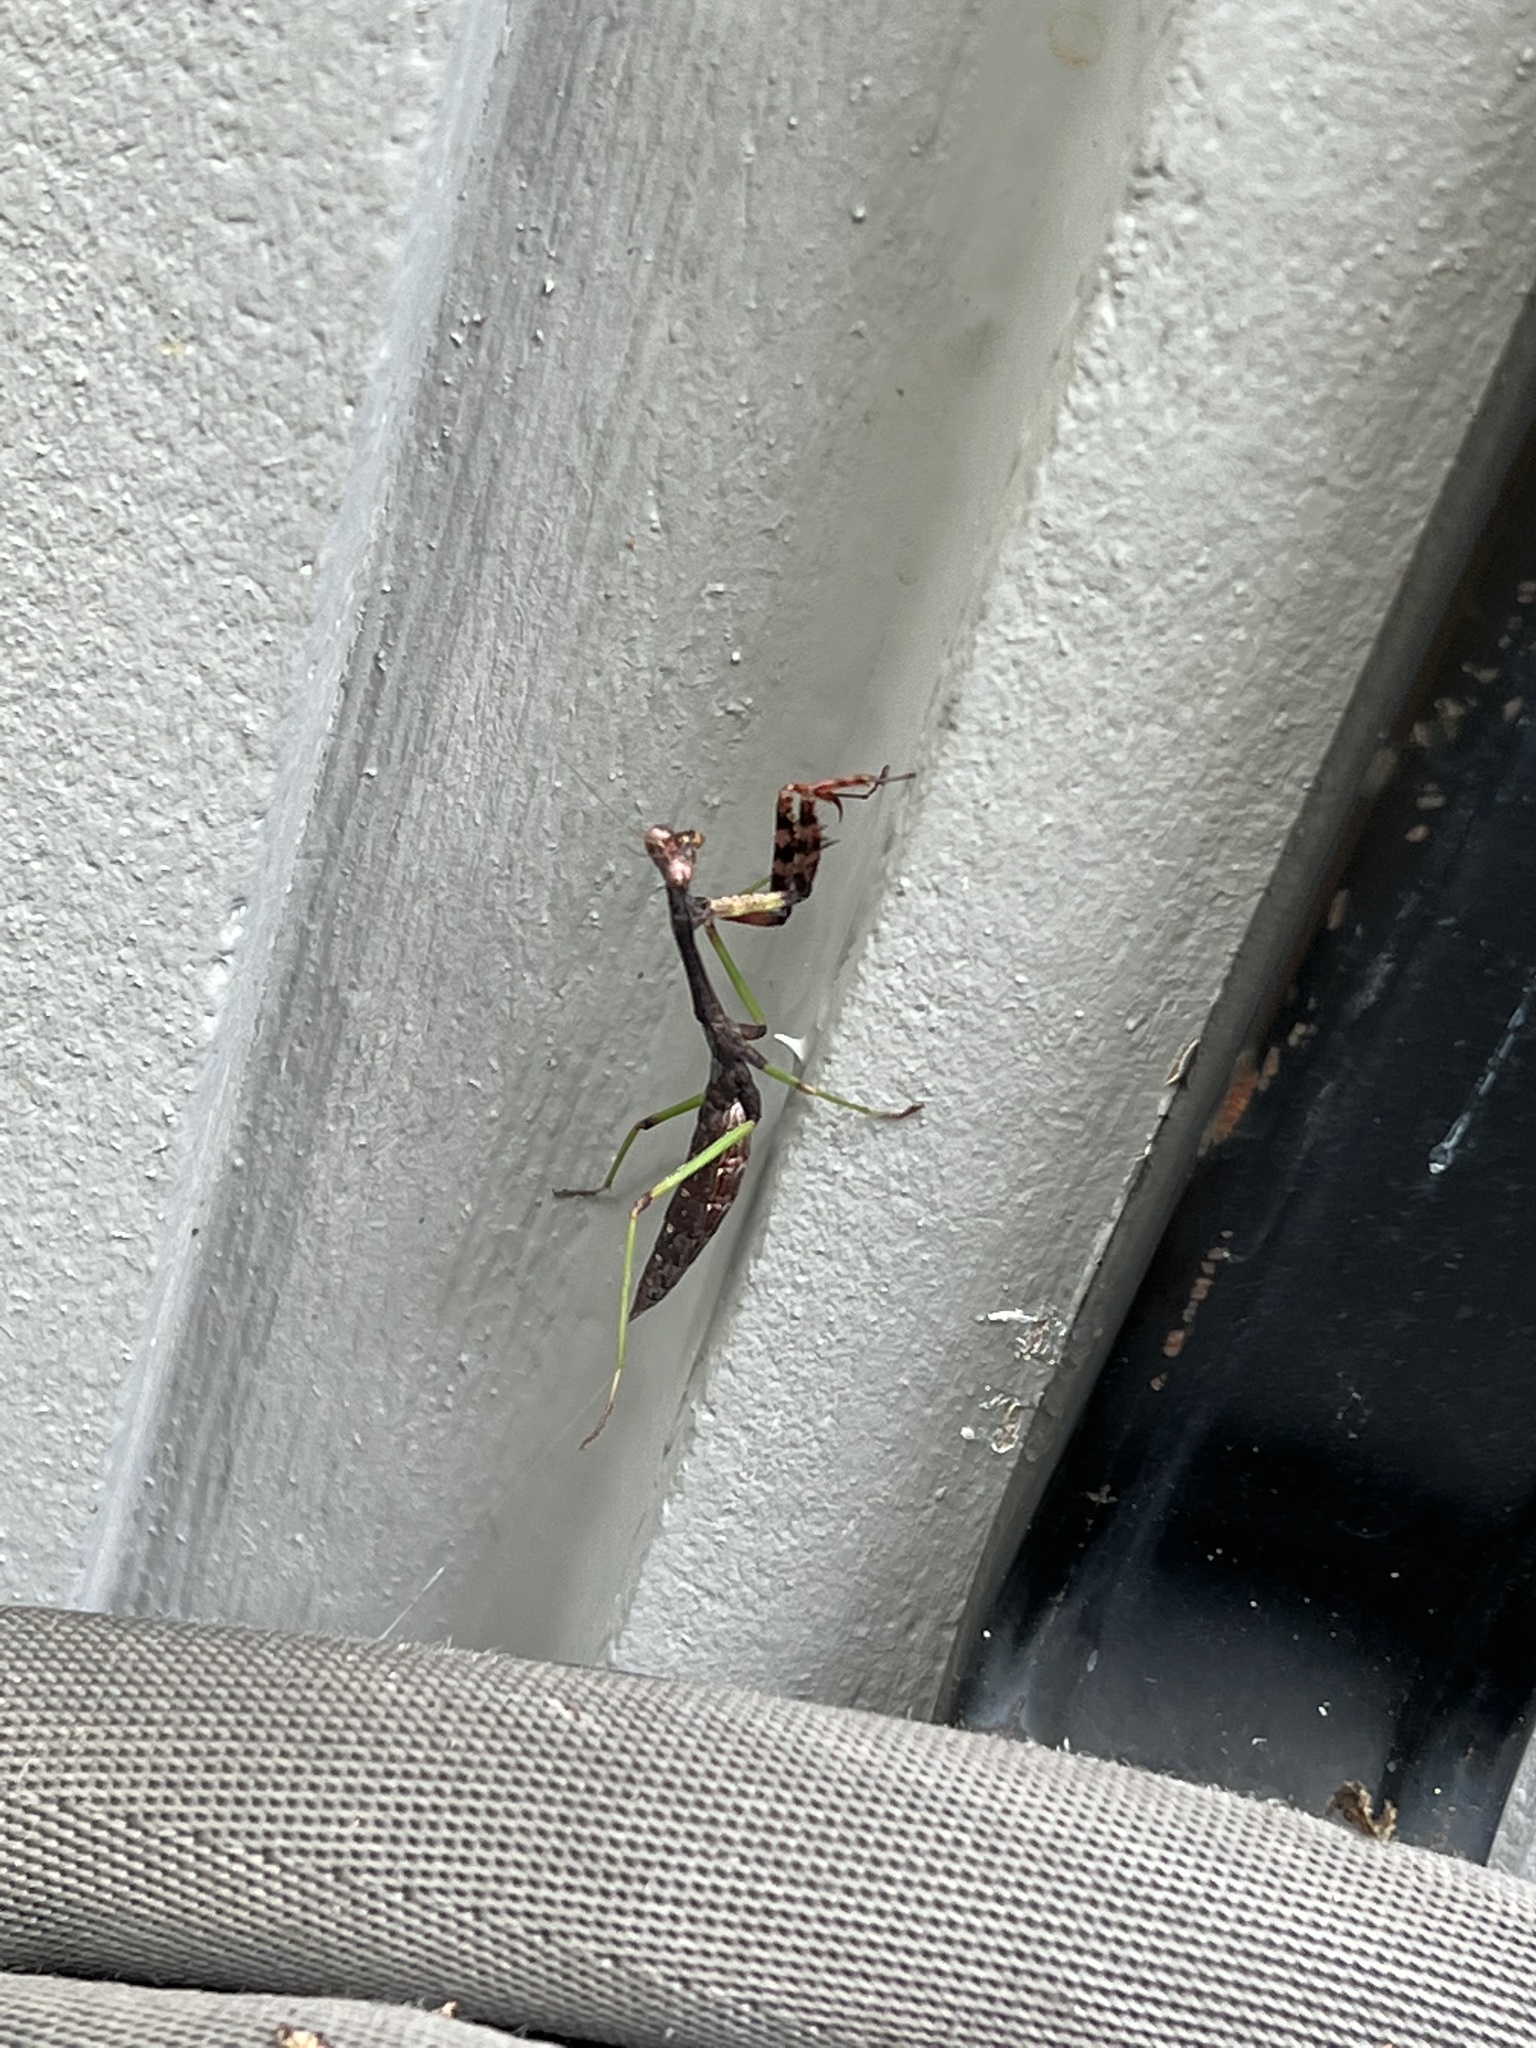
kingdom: Animalia
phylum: Arthropoda
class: Insecta
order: Mantodea
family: Mantidae
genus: Stagmomantis
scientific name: Stagmomantis carolina
